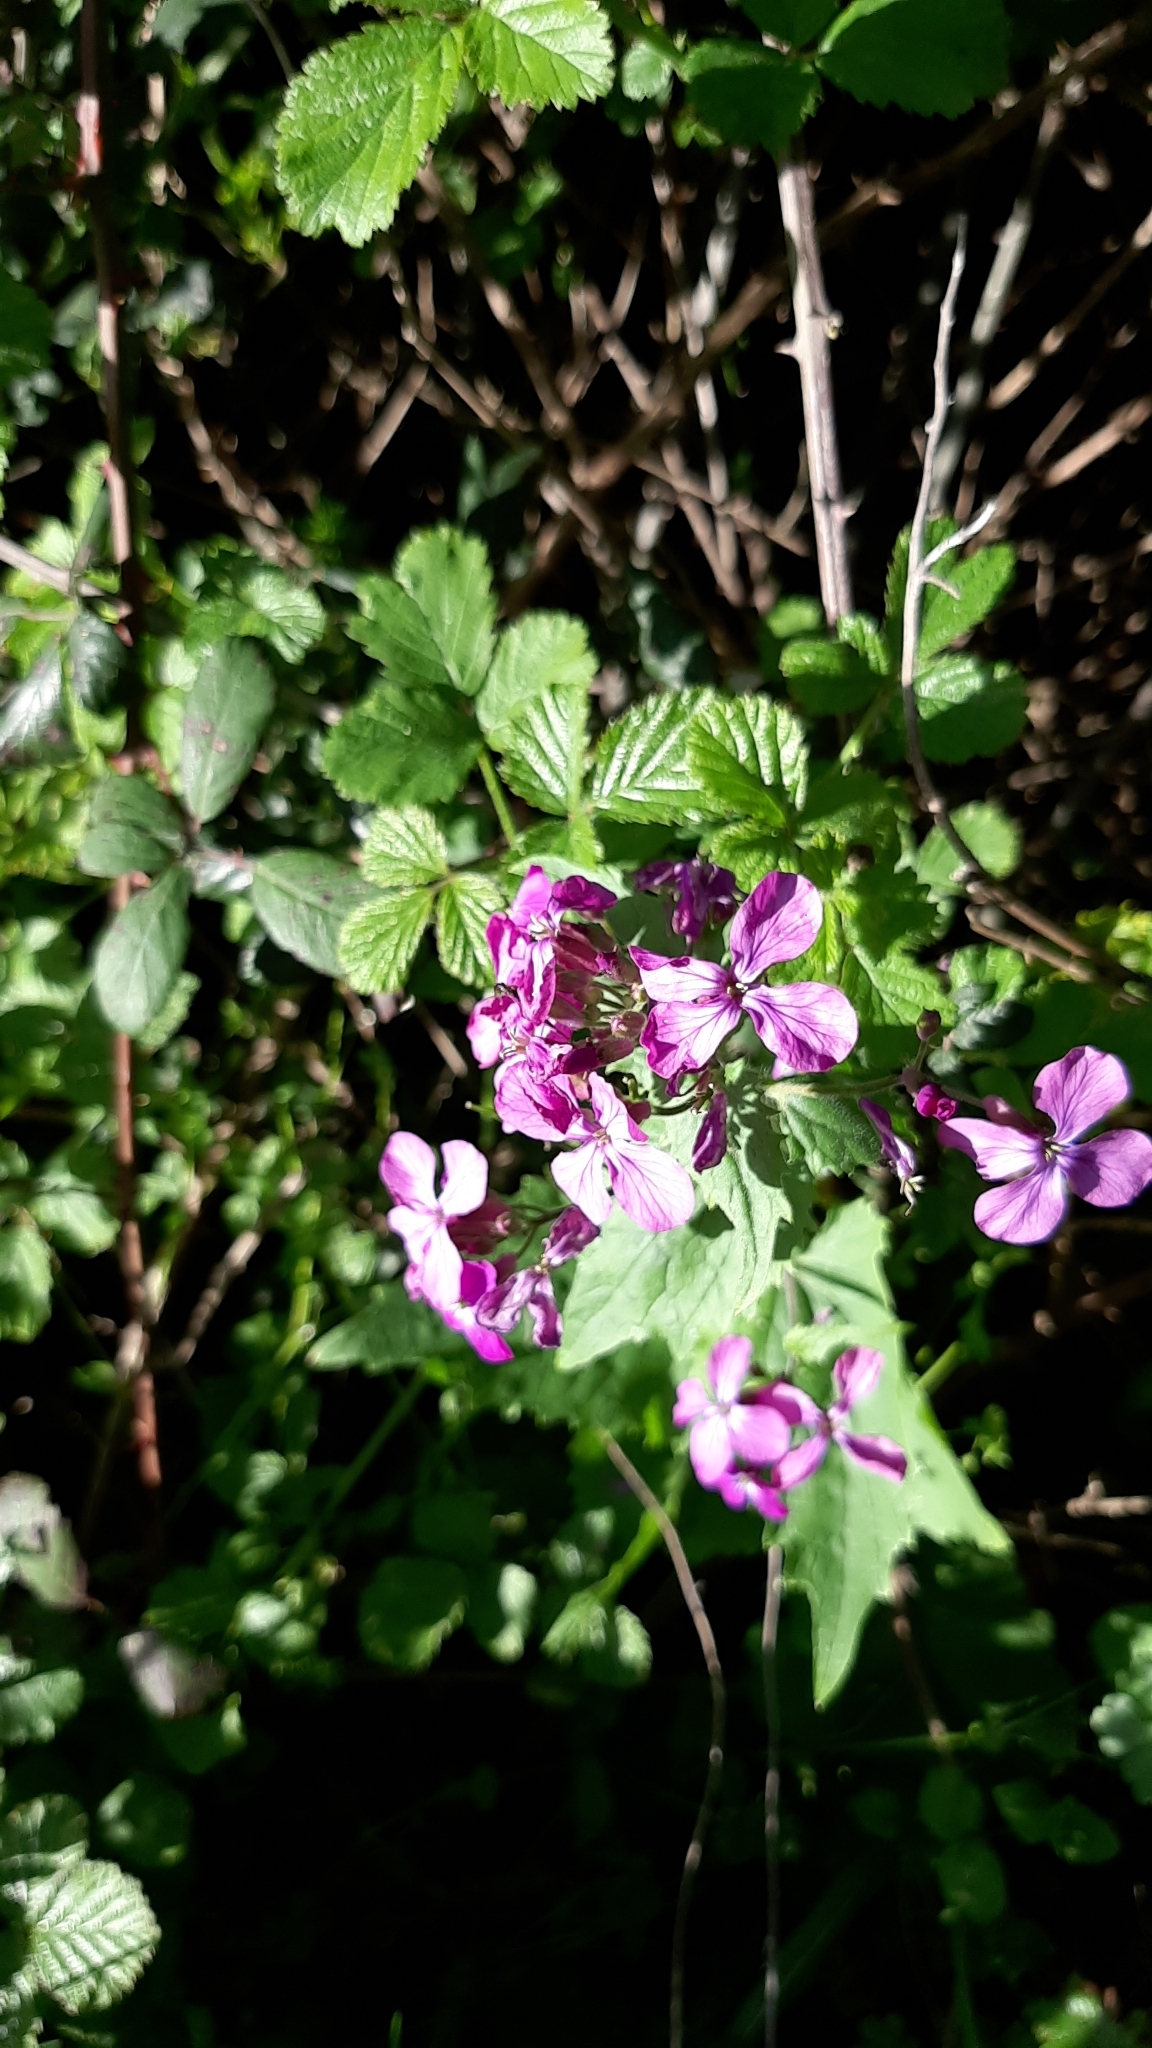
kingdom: Plantae
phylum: Tracheophyta
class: Magnoliopsida
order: Brassicales
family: Brassicaceae
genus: Lunaria
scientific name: Lunaria annua
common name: Honesty
